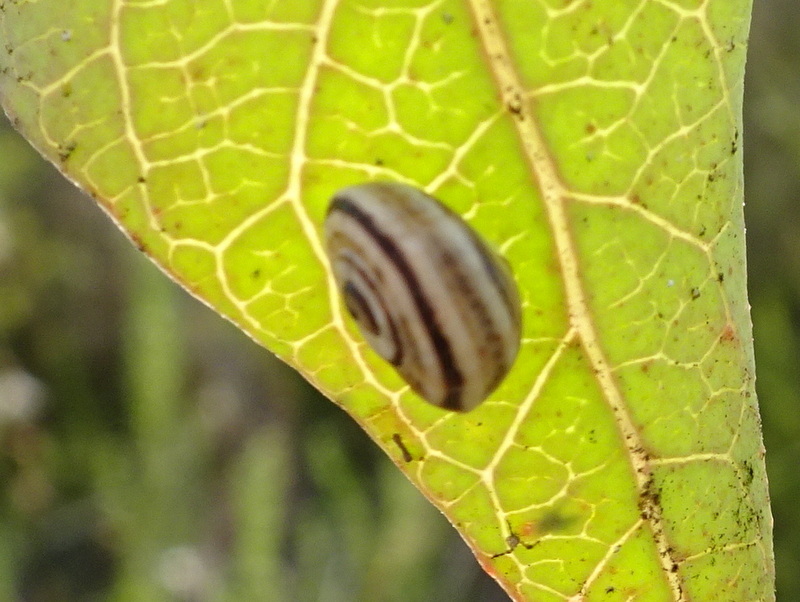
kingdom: Animalia
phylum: Mollusca
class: Gastropoda
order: Stylommatophora
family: Helicidae
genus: Theba
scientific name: Theba pisana
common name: White snail
